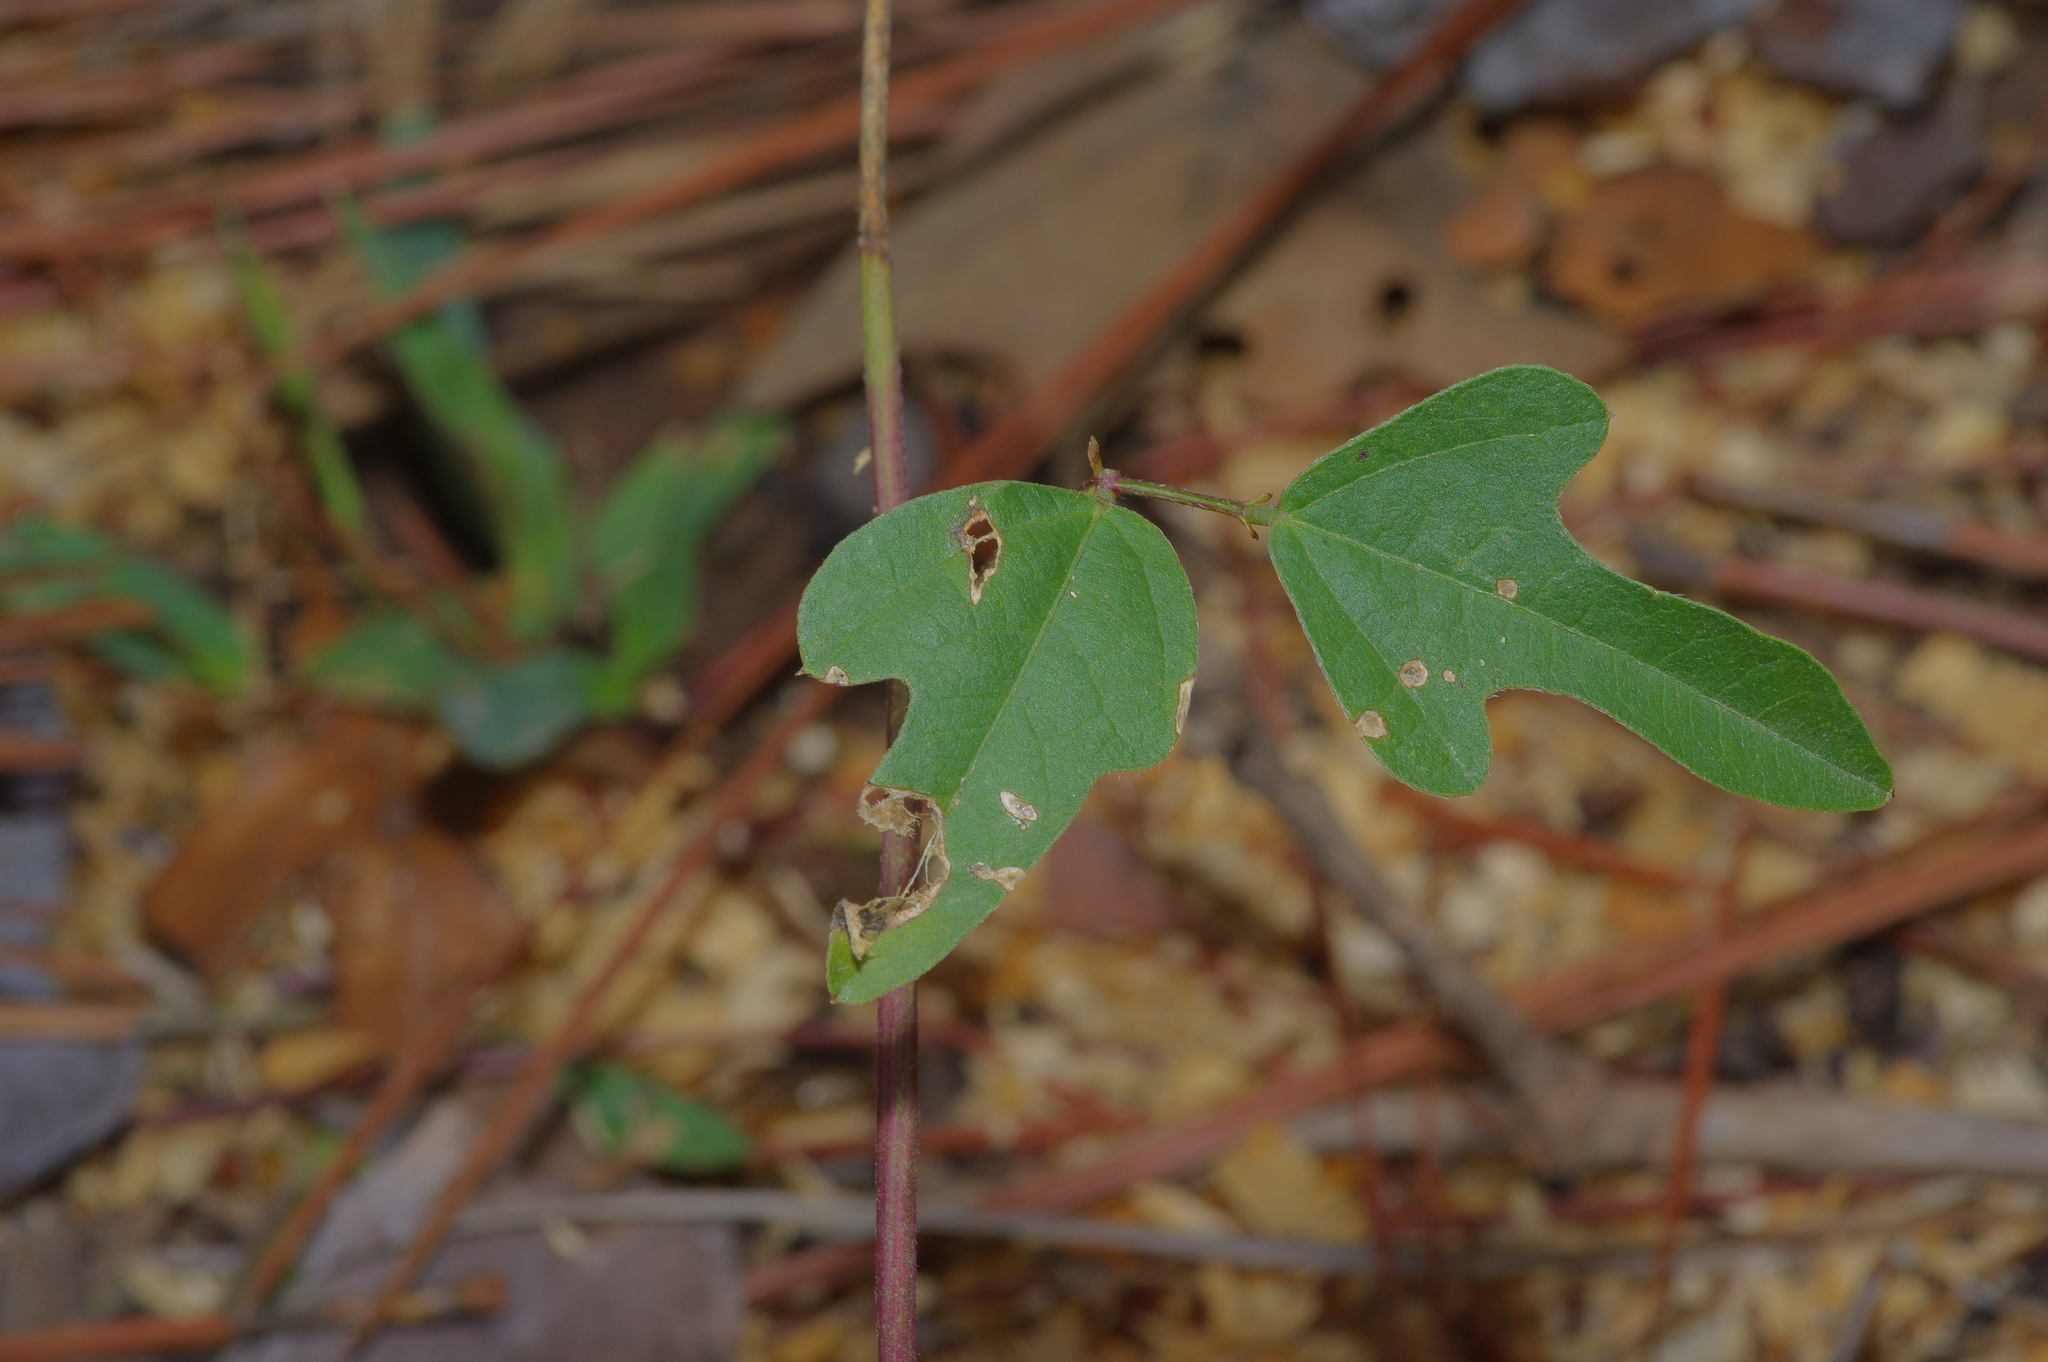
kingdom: Plantae
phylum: Tracheophyta
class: Magnoliopsida
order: Fabales
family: Fabaceae
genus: Strophostyles
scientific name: Strophostyles helvola
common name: Trailing wild bean
